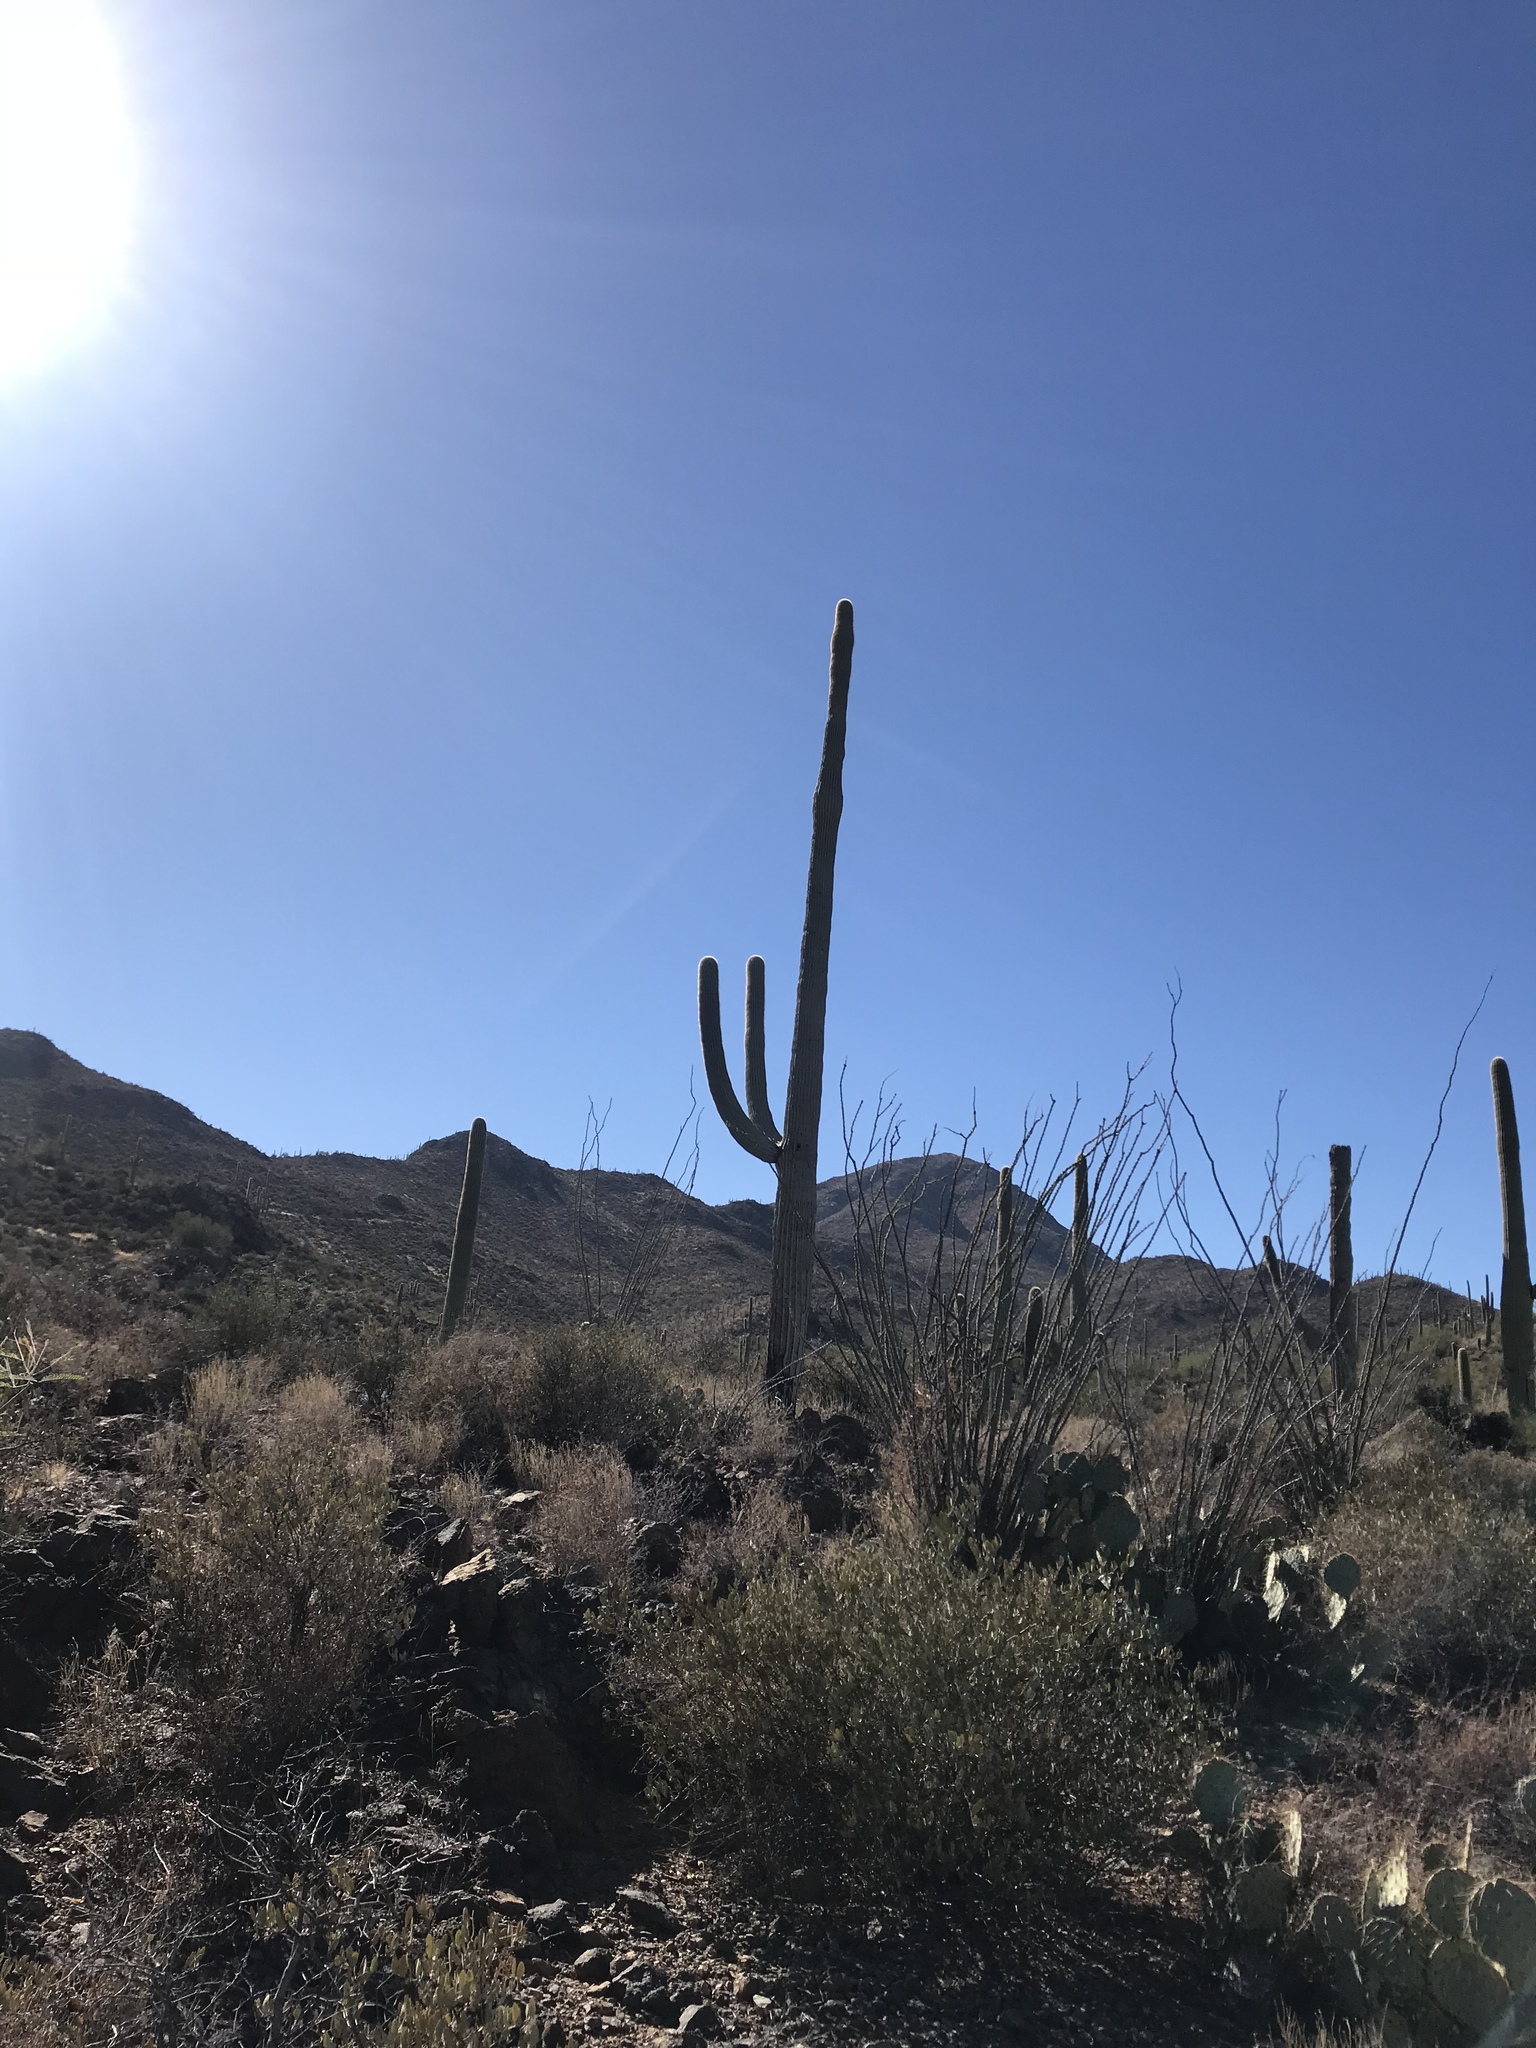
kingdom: Plantae
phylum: Tracheophyta
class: Magnoliopsida
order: Ericales
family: Fouquieriaceae
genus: Fouquieria
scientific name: Fouquieria splendens
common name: Vine-cactus
